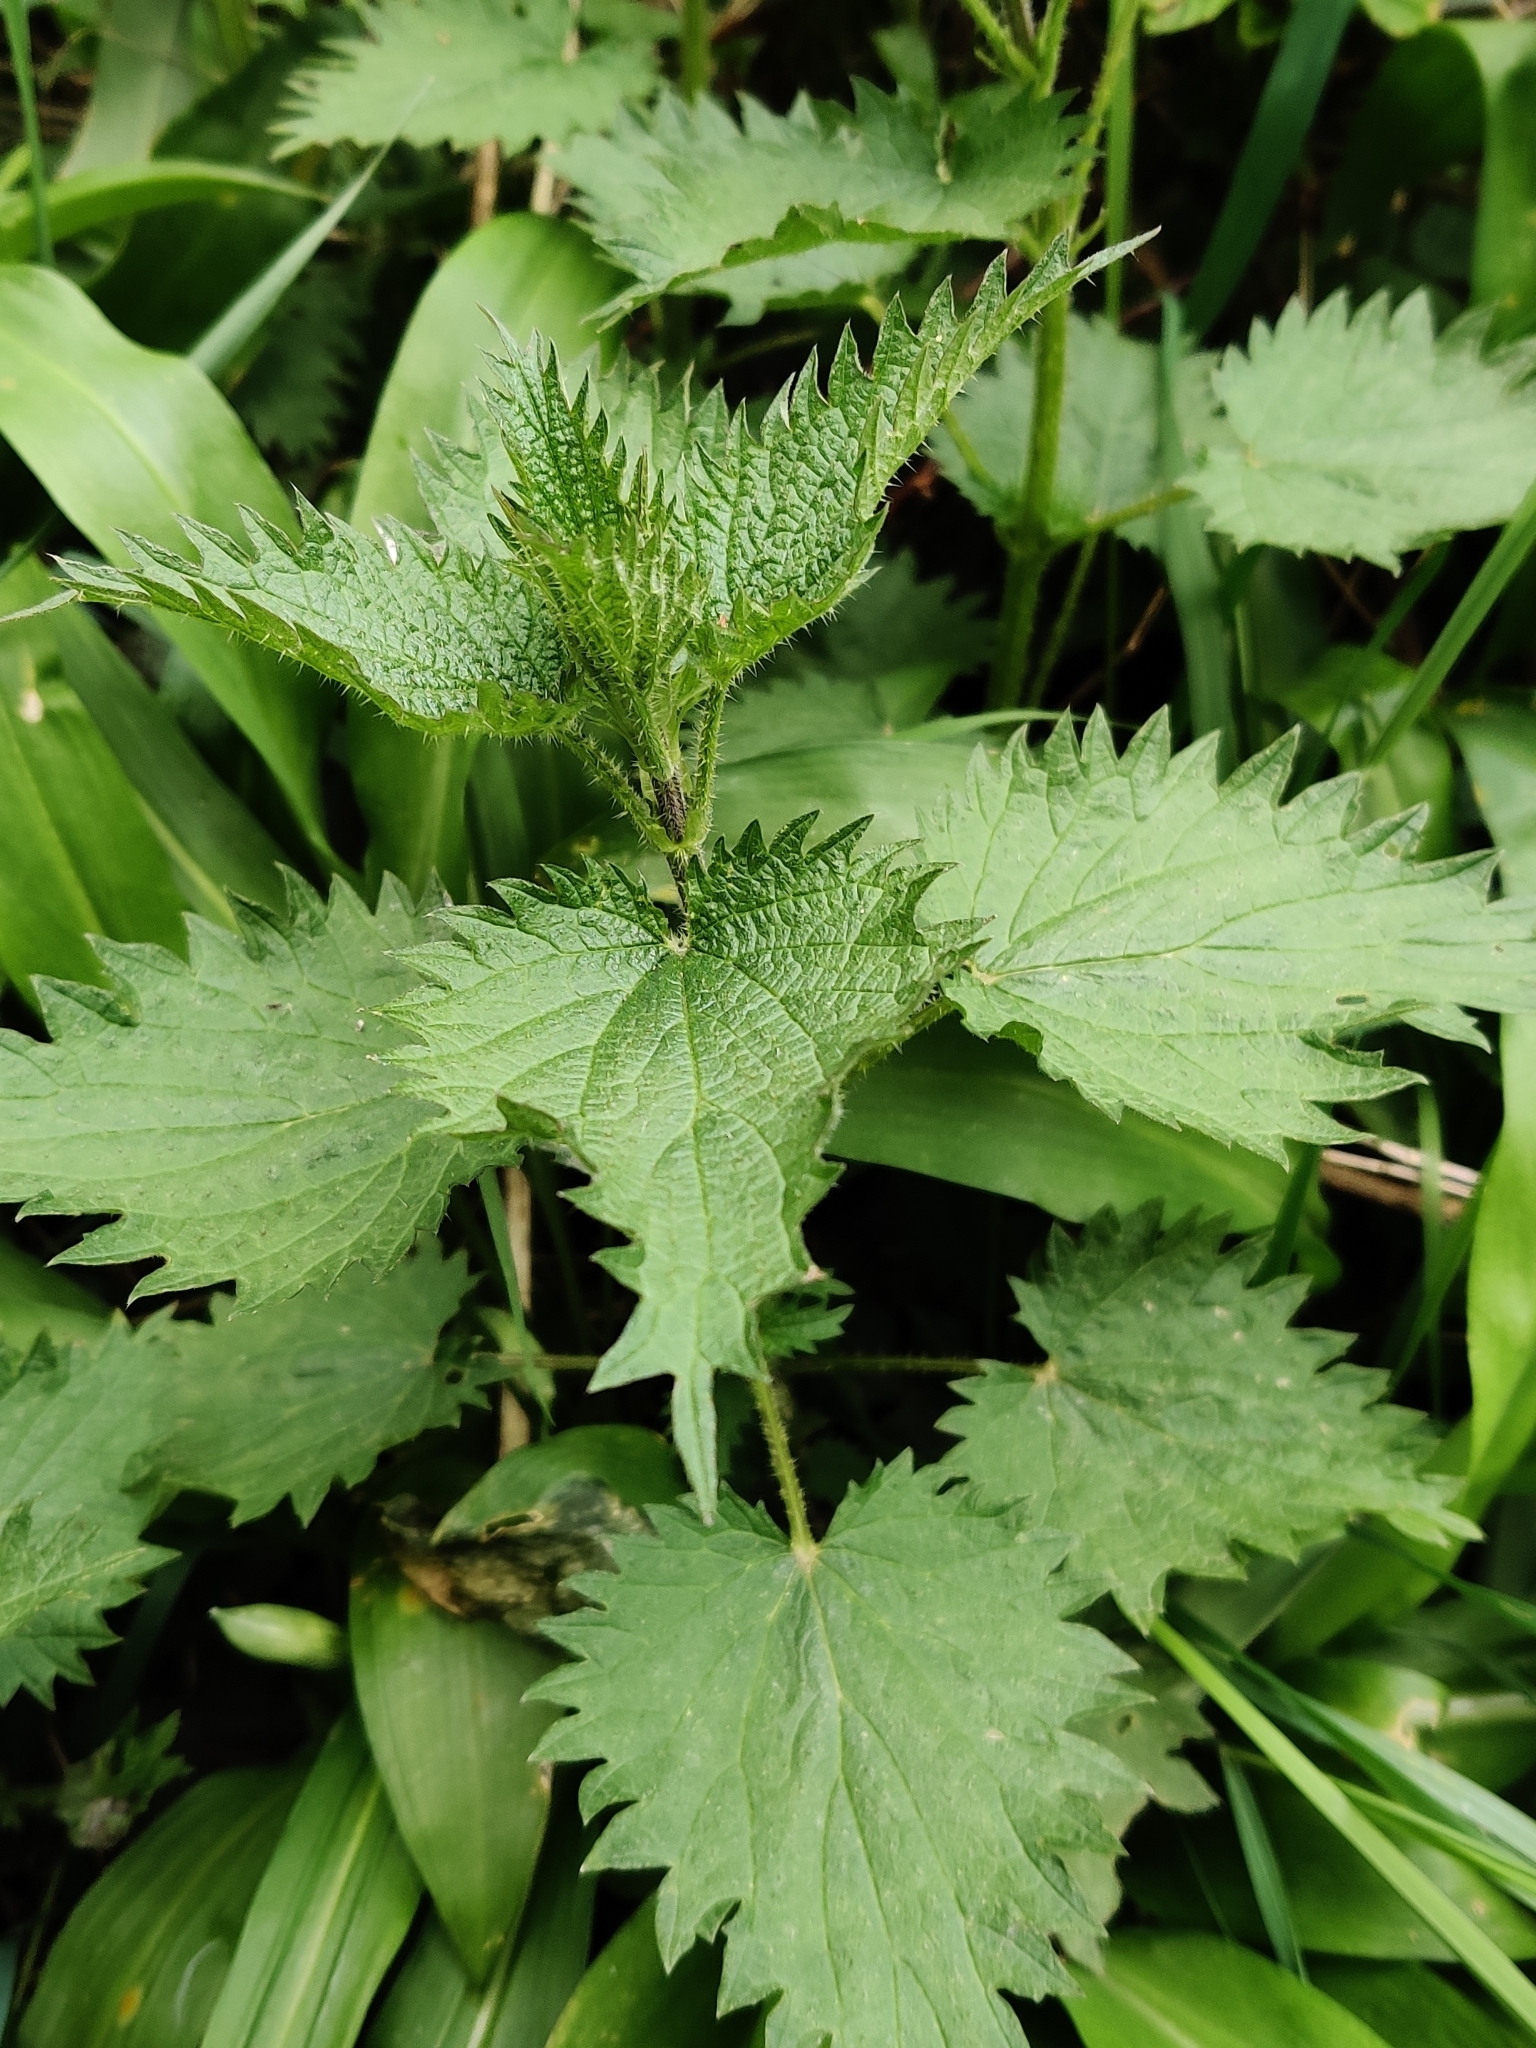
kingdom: Plantae
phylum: Tracheophyta
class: Magnoliopsida
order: Rosales
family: Urticaceae
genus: Urtica
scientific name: Urtica dioica
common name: Common nettle
